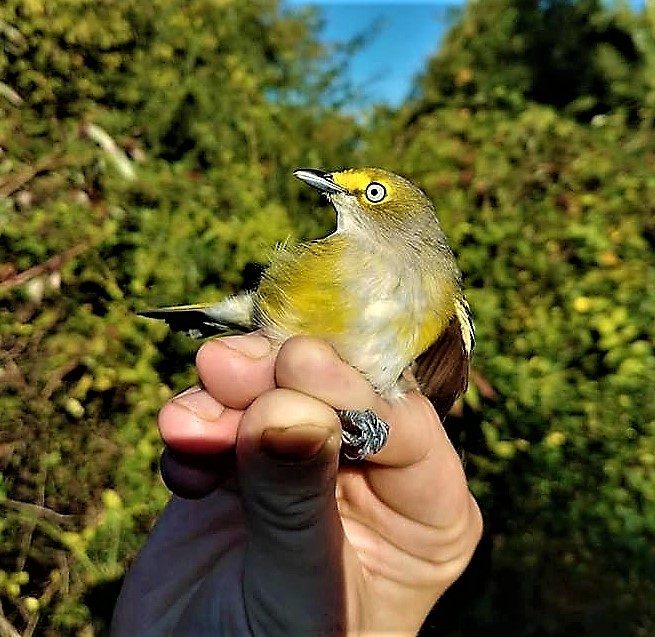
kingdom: Animalia
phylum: Chordata
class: Aves
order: Passeriformes
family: Vireonidae
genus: Vireo
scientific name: Vireo griseus
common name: White-eyed vireo
